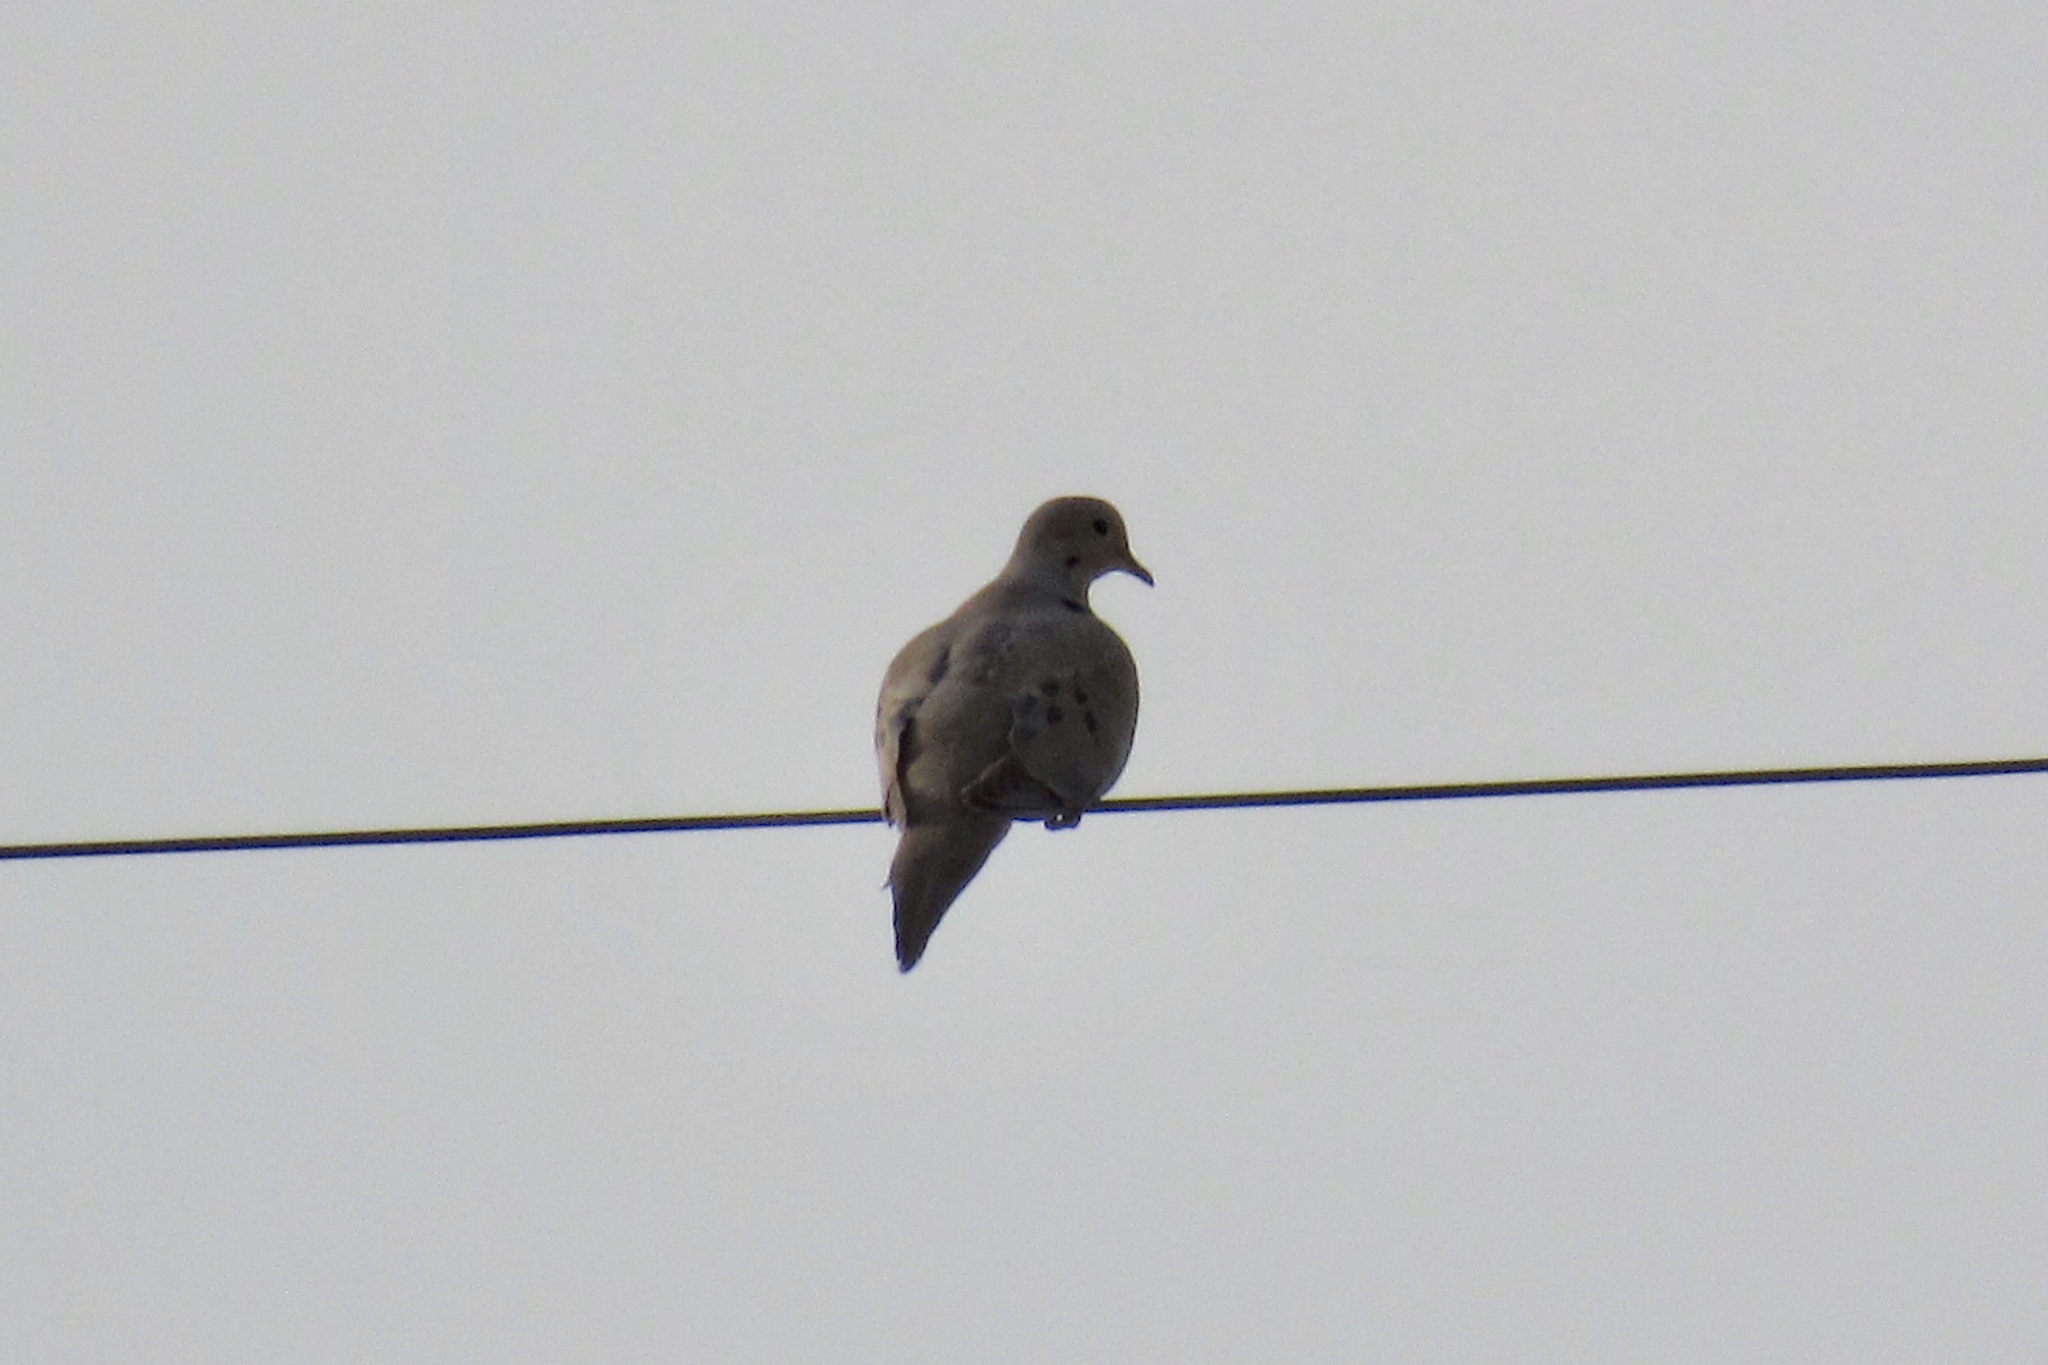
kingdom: Animalia
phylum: Chordata
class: Aves
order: Columbiformes
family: Columbidae
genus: Zenaida
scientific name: Zenaida macroura
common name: Mourning dove
